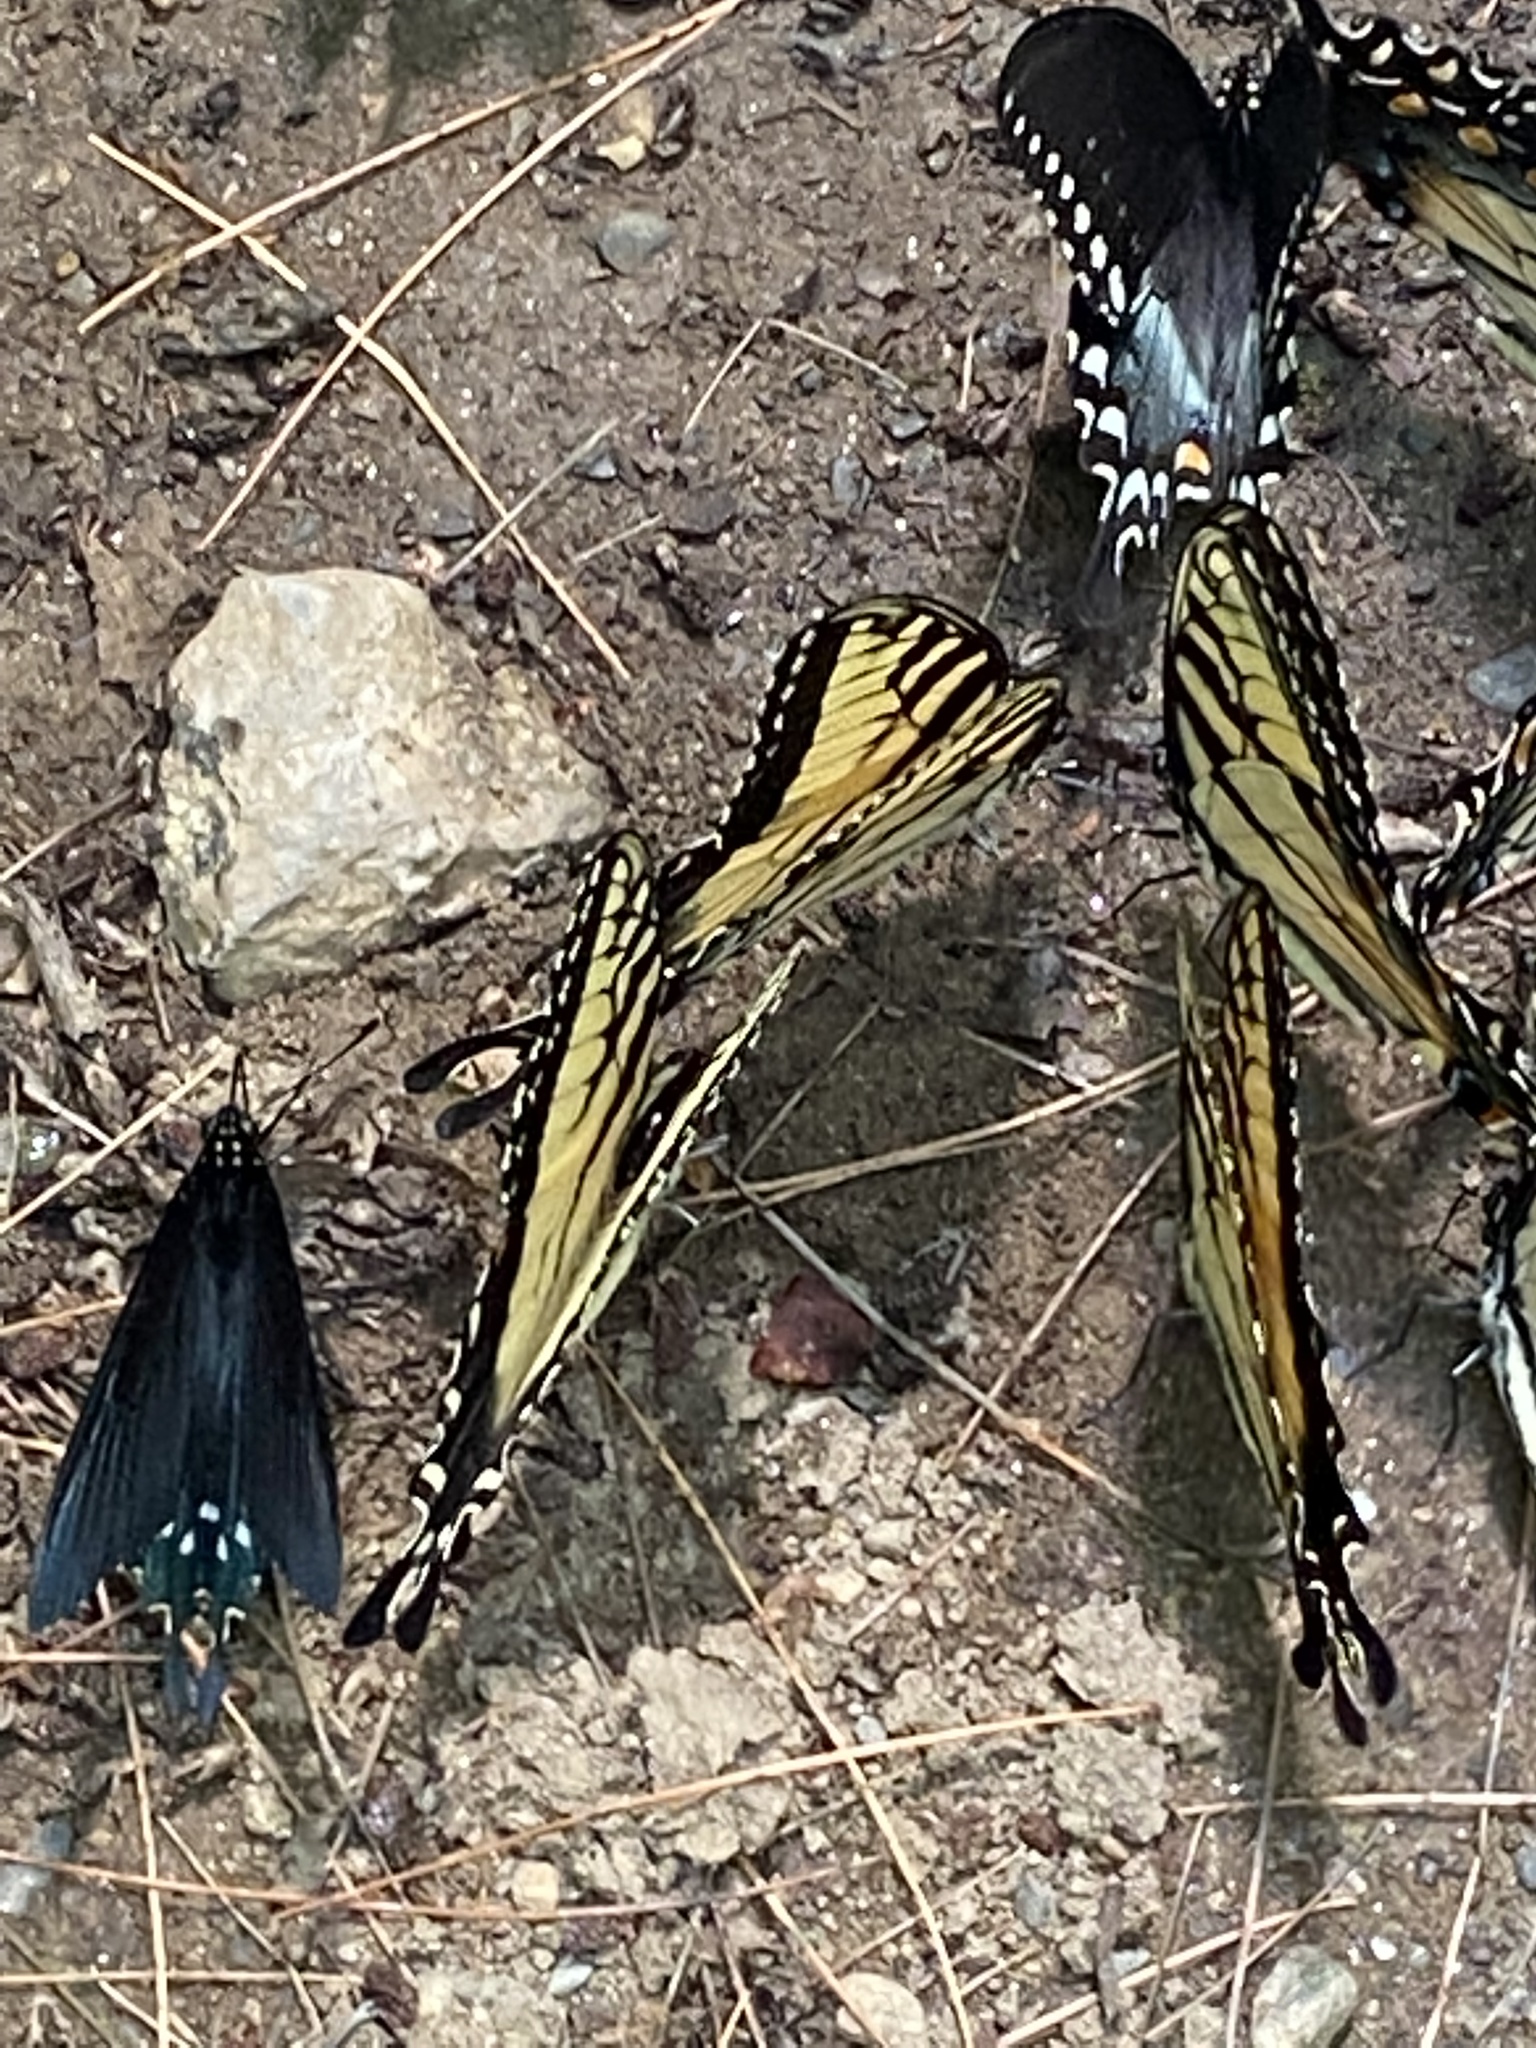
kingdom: Animalia
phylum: Arthropoda
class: Insecta
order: Lepidoptera
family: Papilionidae
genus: Papilio
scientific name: Papilio glaucus
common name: Tiger swallowtail
